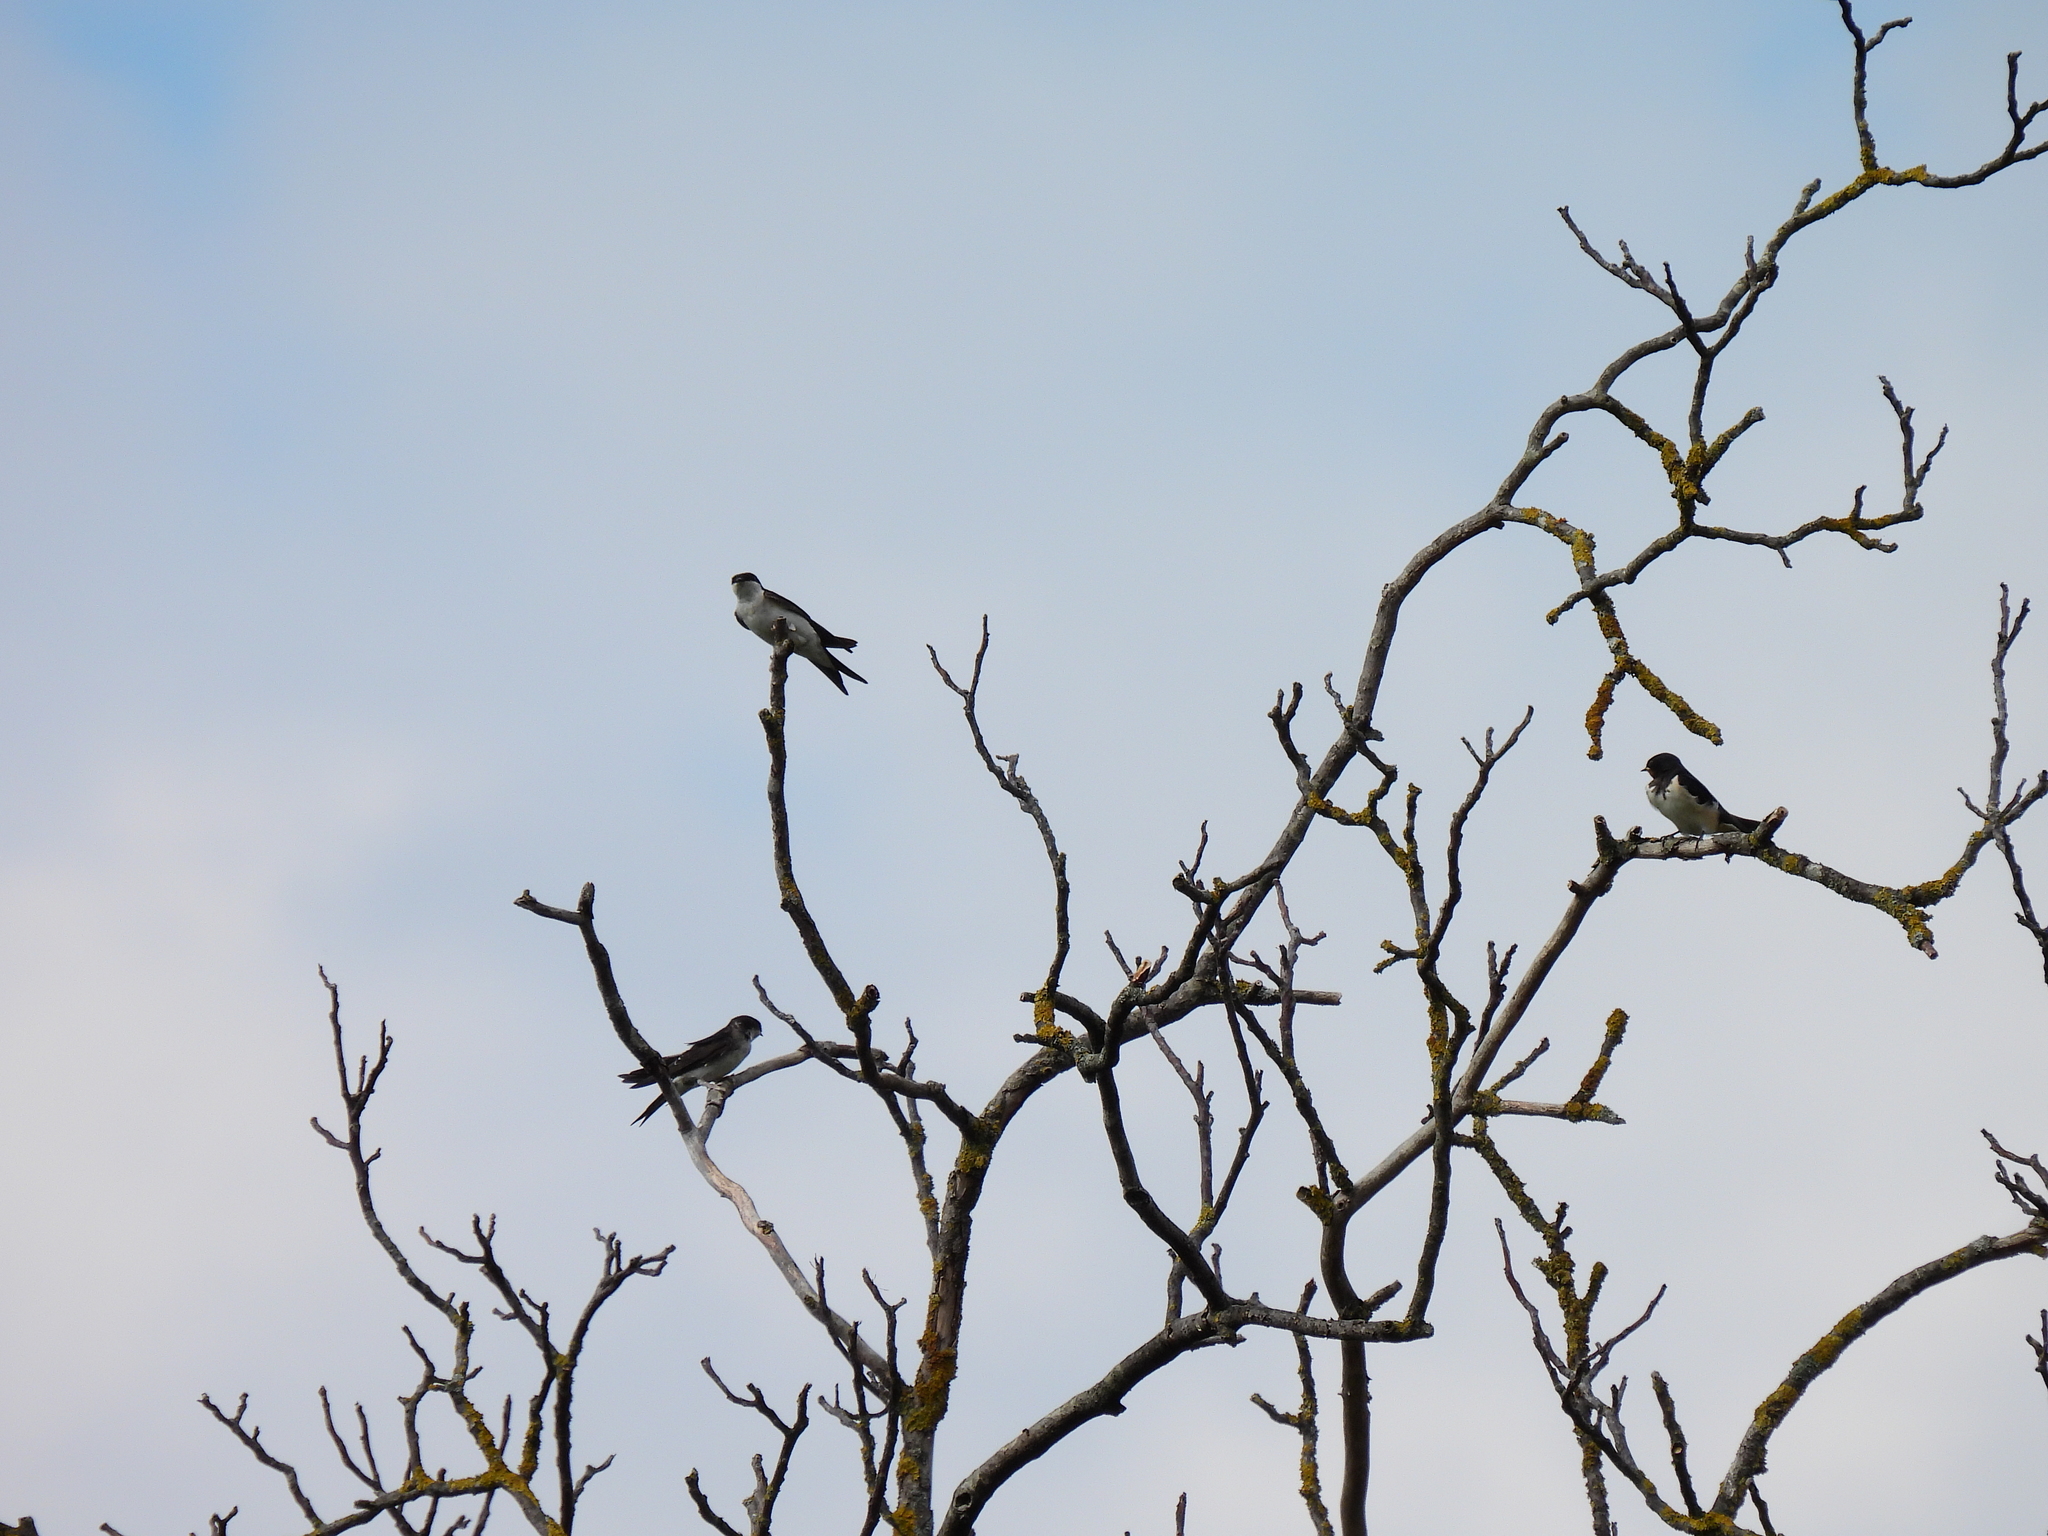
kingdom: Animalia
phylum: Chordata
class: Aves
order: Passeriformes
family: Hirundinidae
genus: Delichon
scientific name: Delichon urbicum
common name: Common house martin
